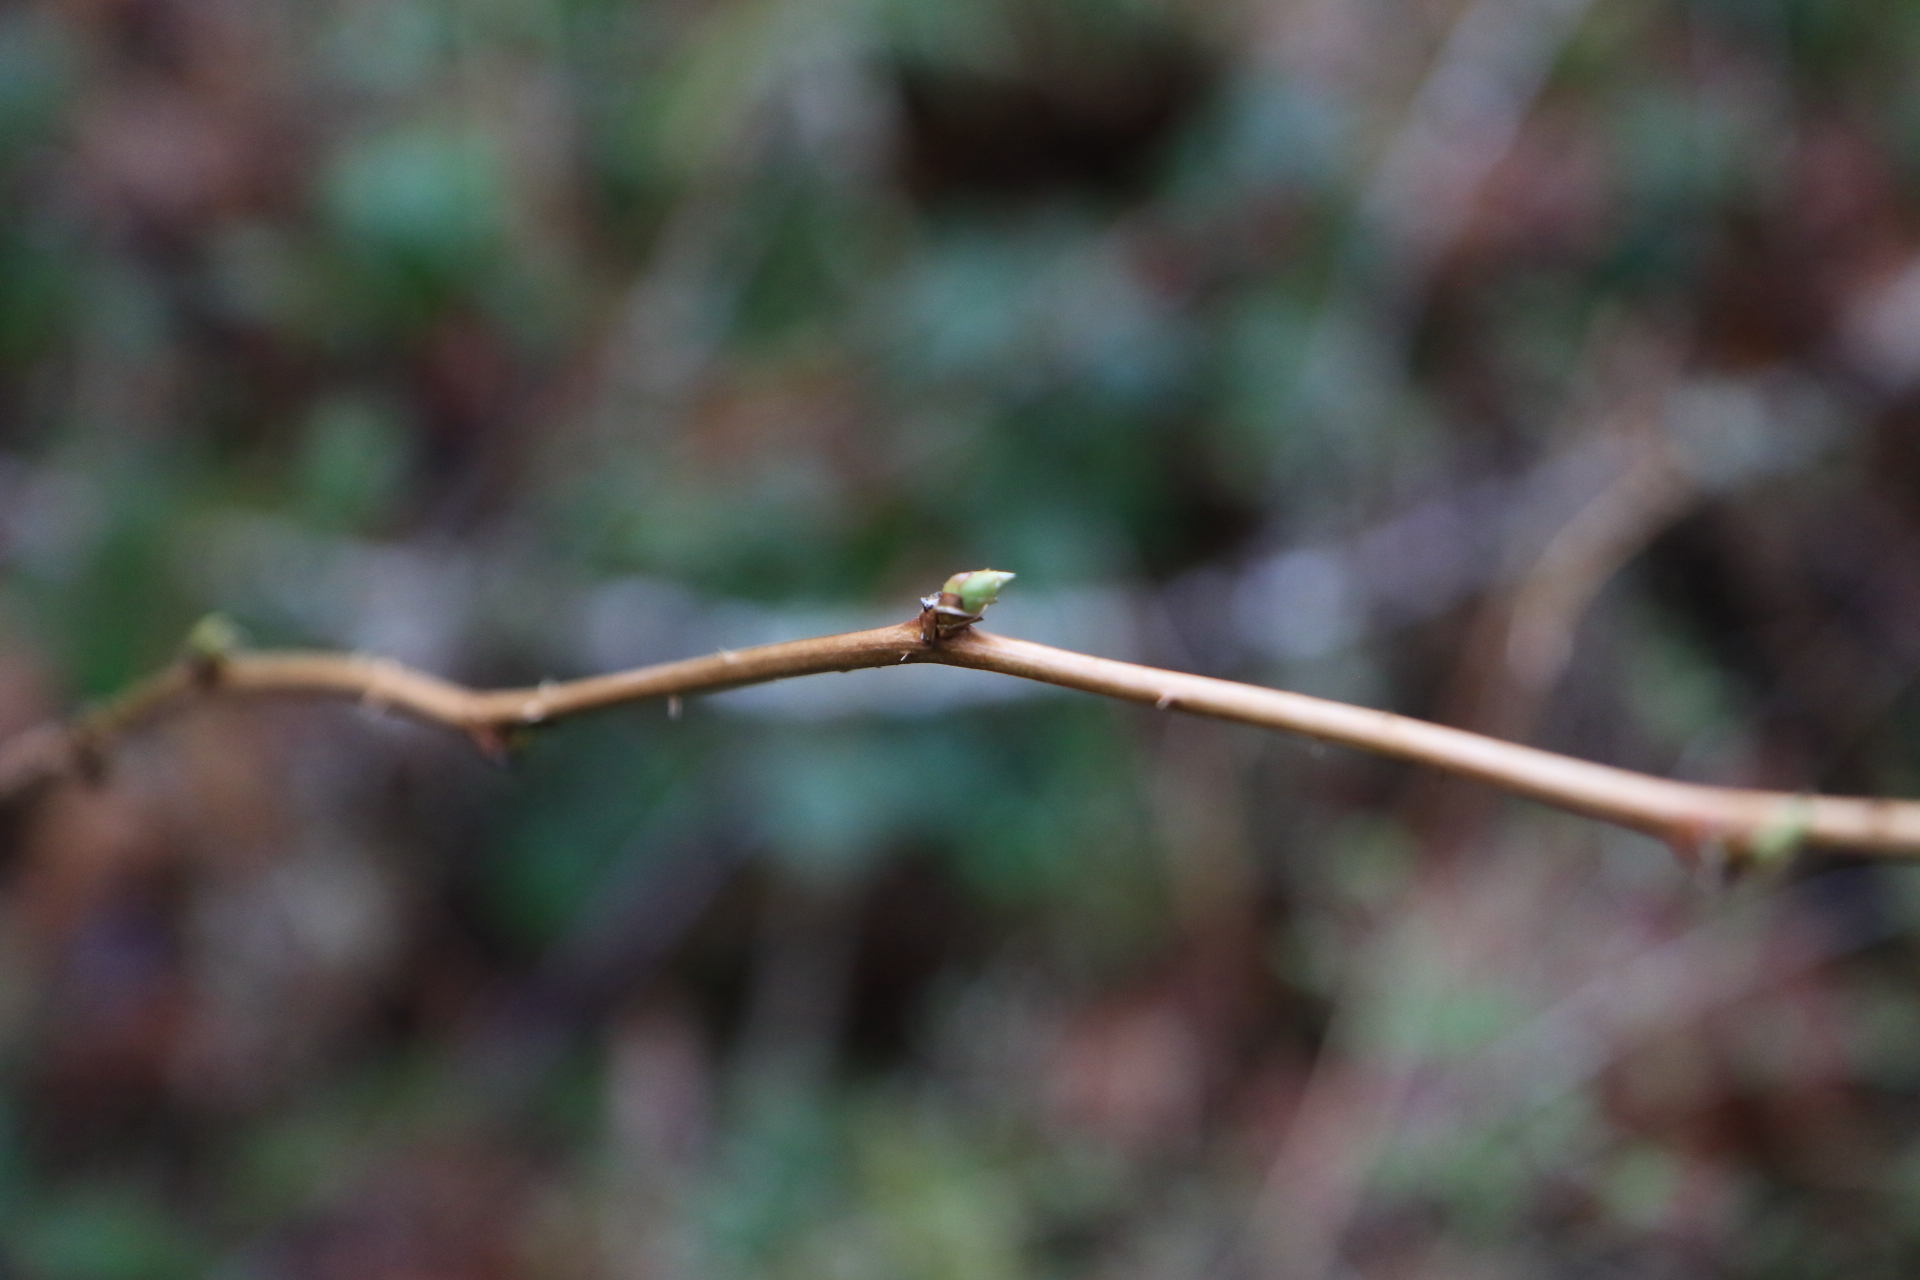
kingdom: Plantae
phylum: Tracheophyta
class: Magnoliopsida
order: Rosales
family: Rosaceae
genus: Rubus
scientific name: Rubus spectabilis
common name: Salmonberry
